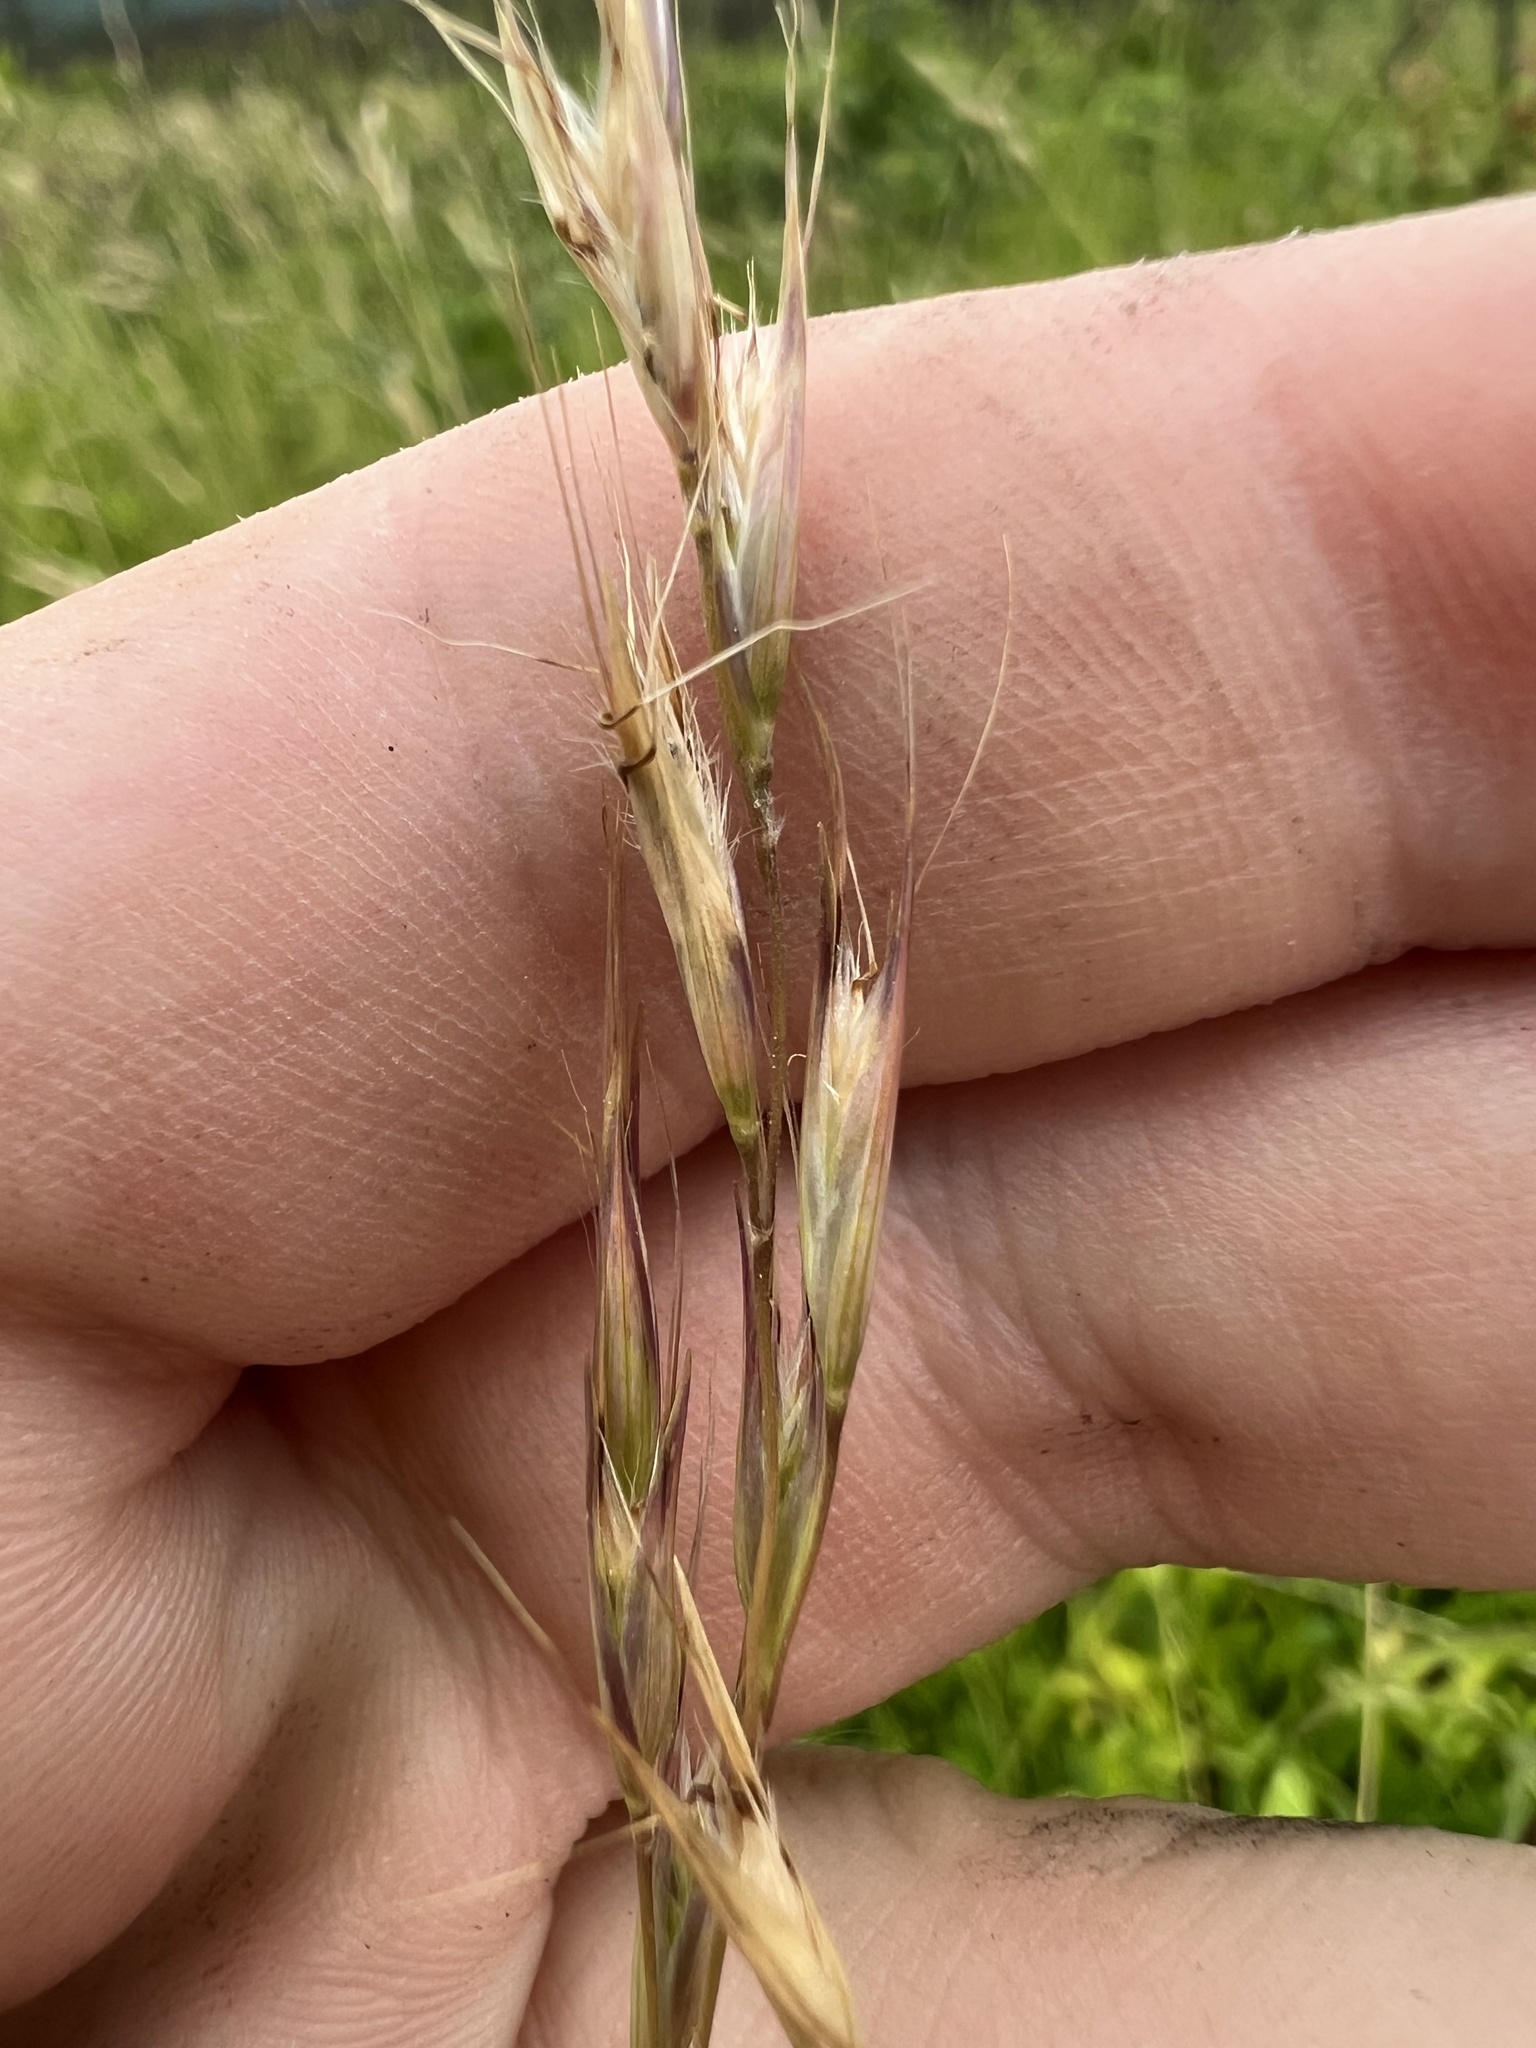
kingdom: Plantae
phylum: Tracheophyta
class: Liliopsida
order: Poales
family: Poaceae
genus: Danthonia
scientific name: Danthonia sericea
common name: Downy danthonia
